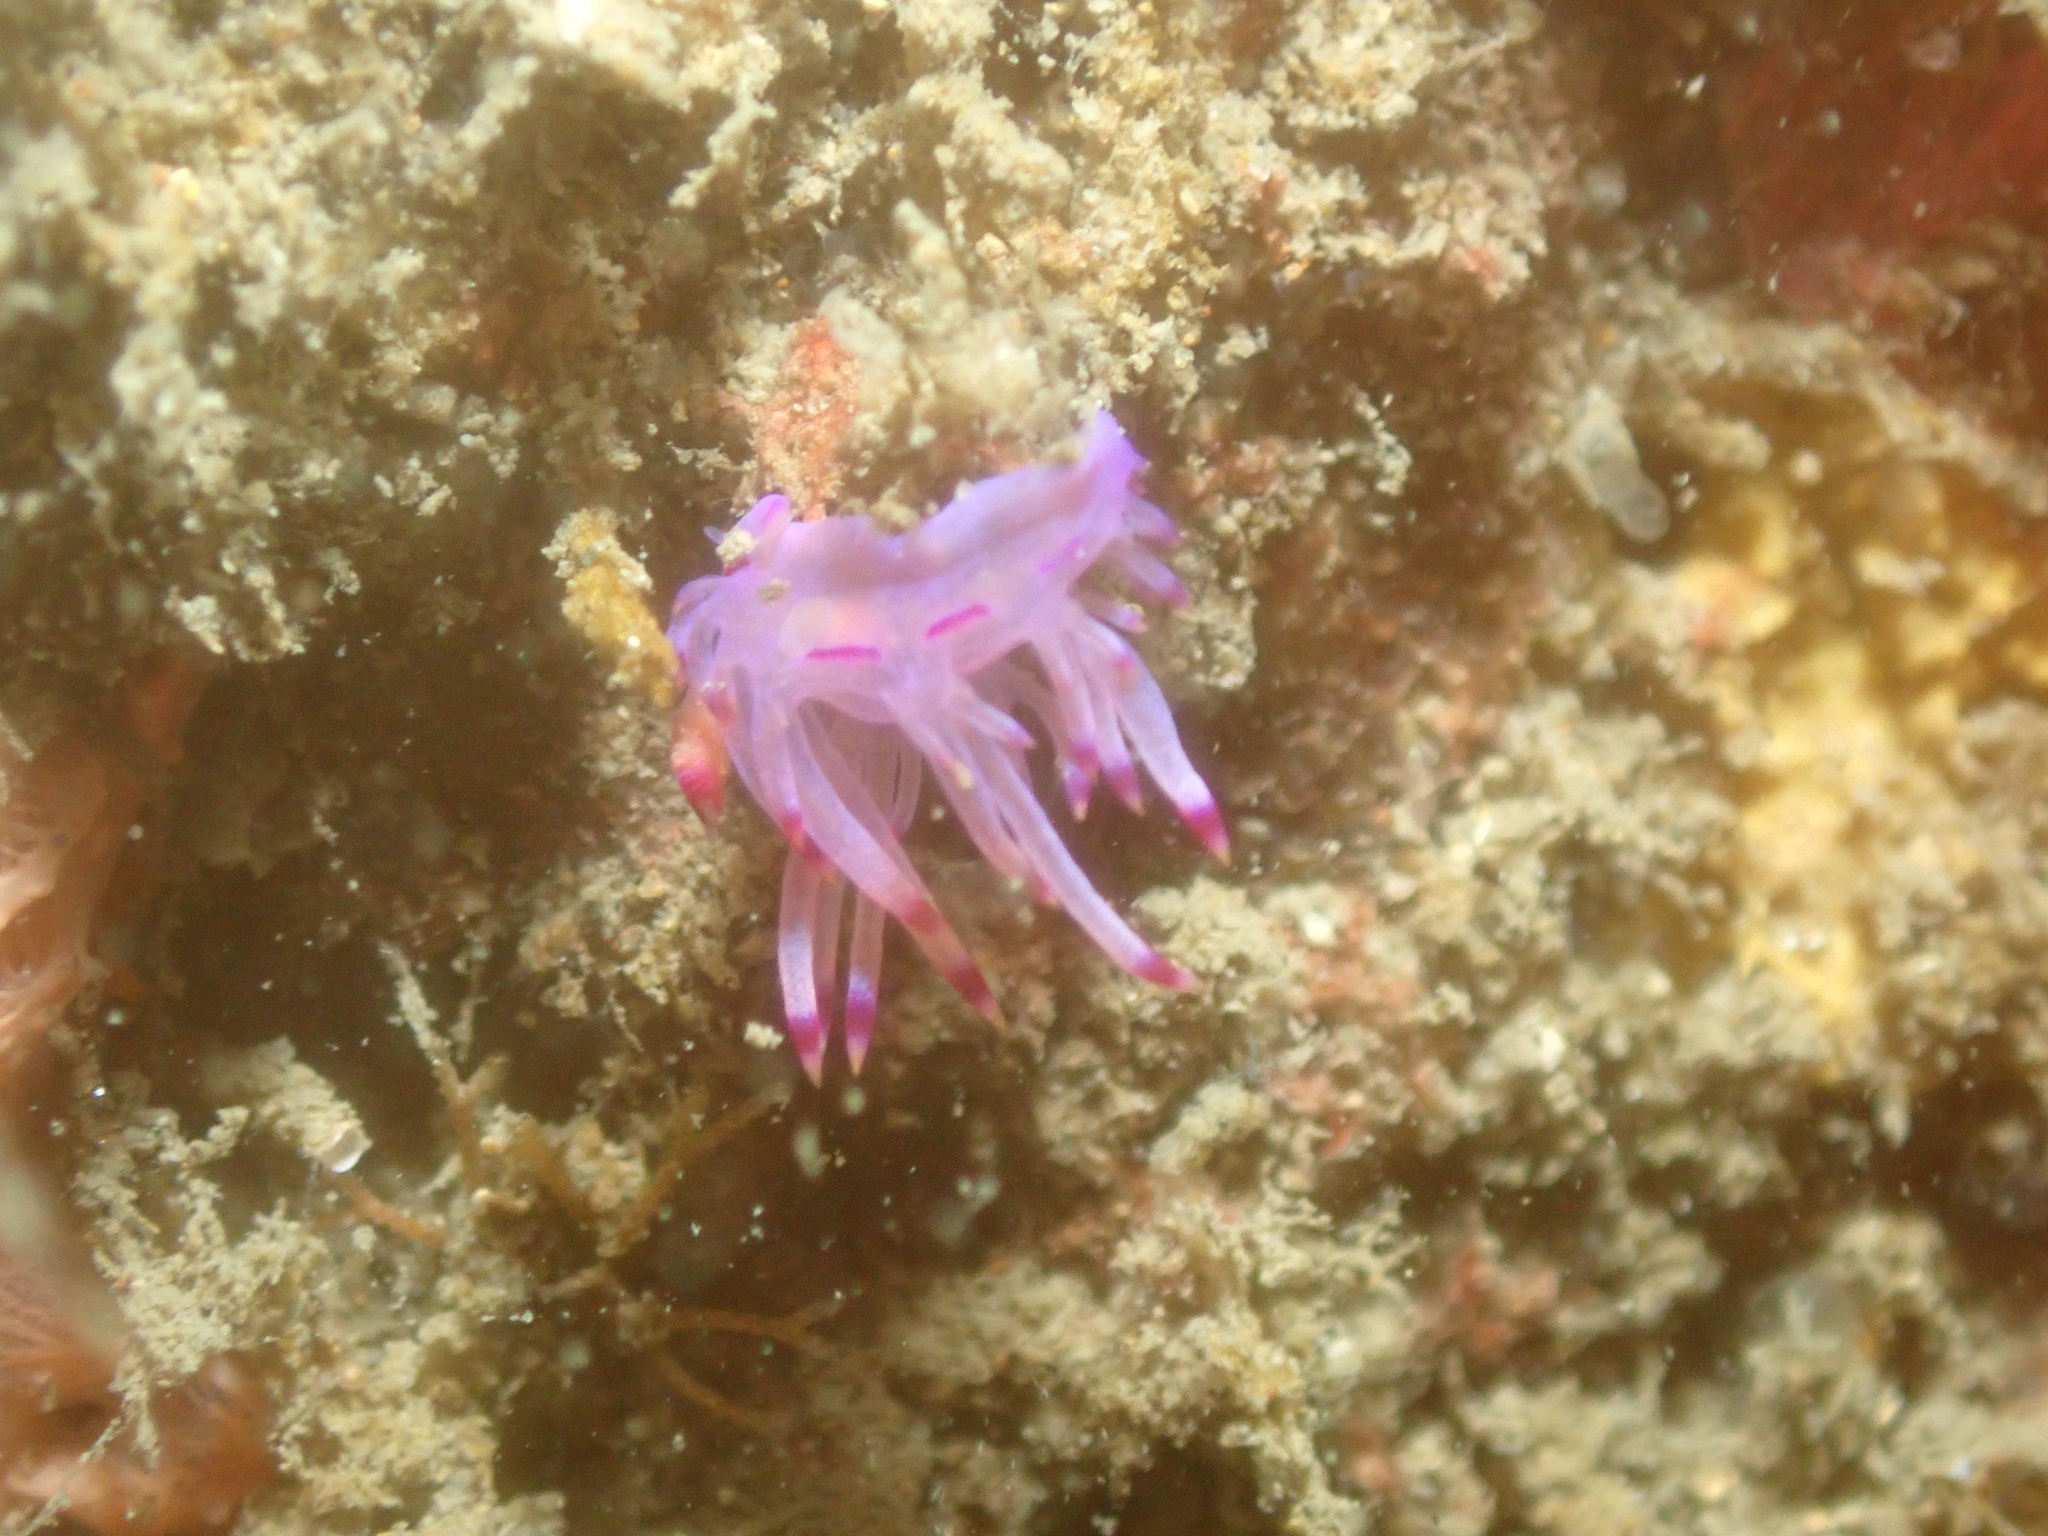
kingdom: Animalia
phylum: Mollusca
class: Gastropoda
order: Nudibranchia
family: Flabellinidae
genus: Coryphellina
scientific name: Coryphellina lotos
